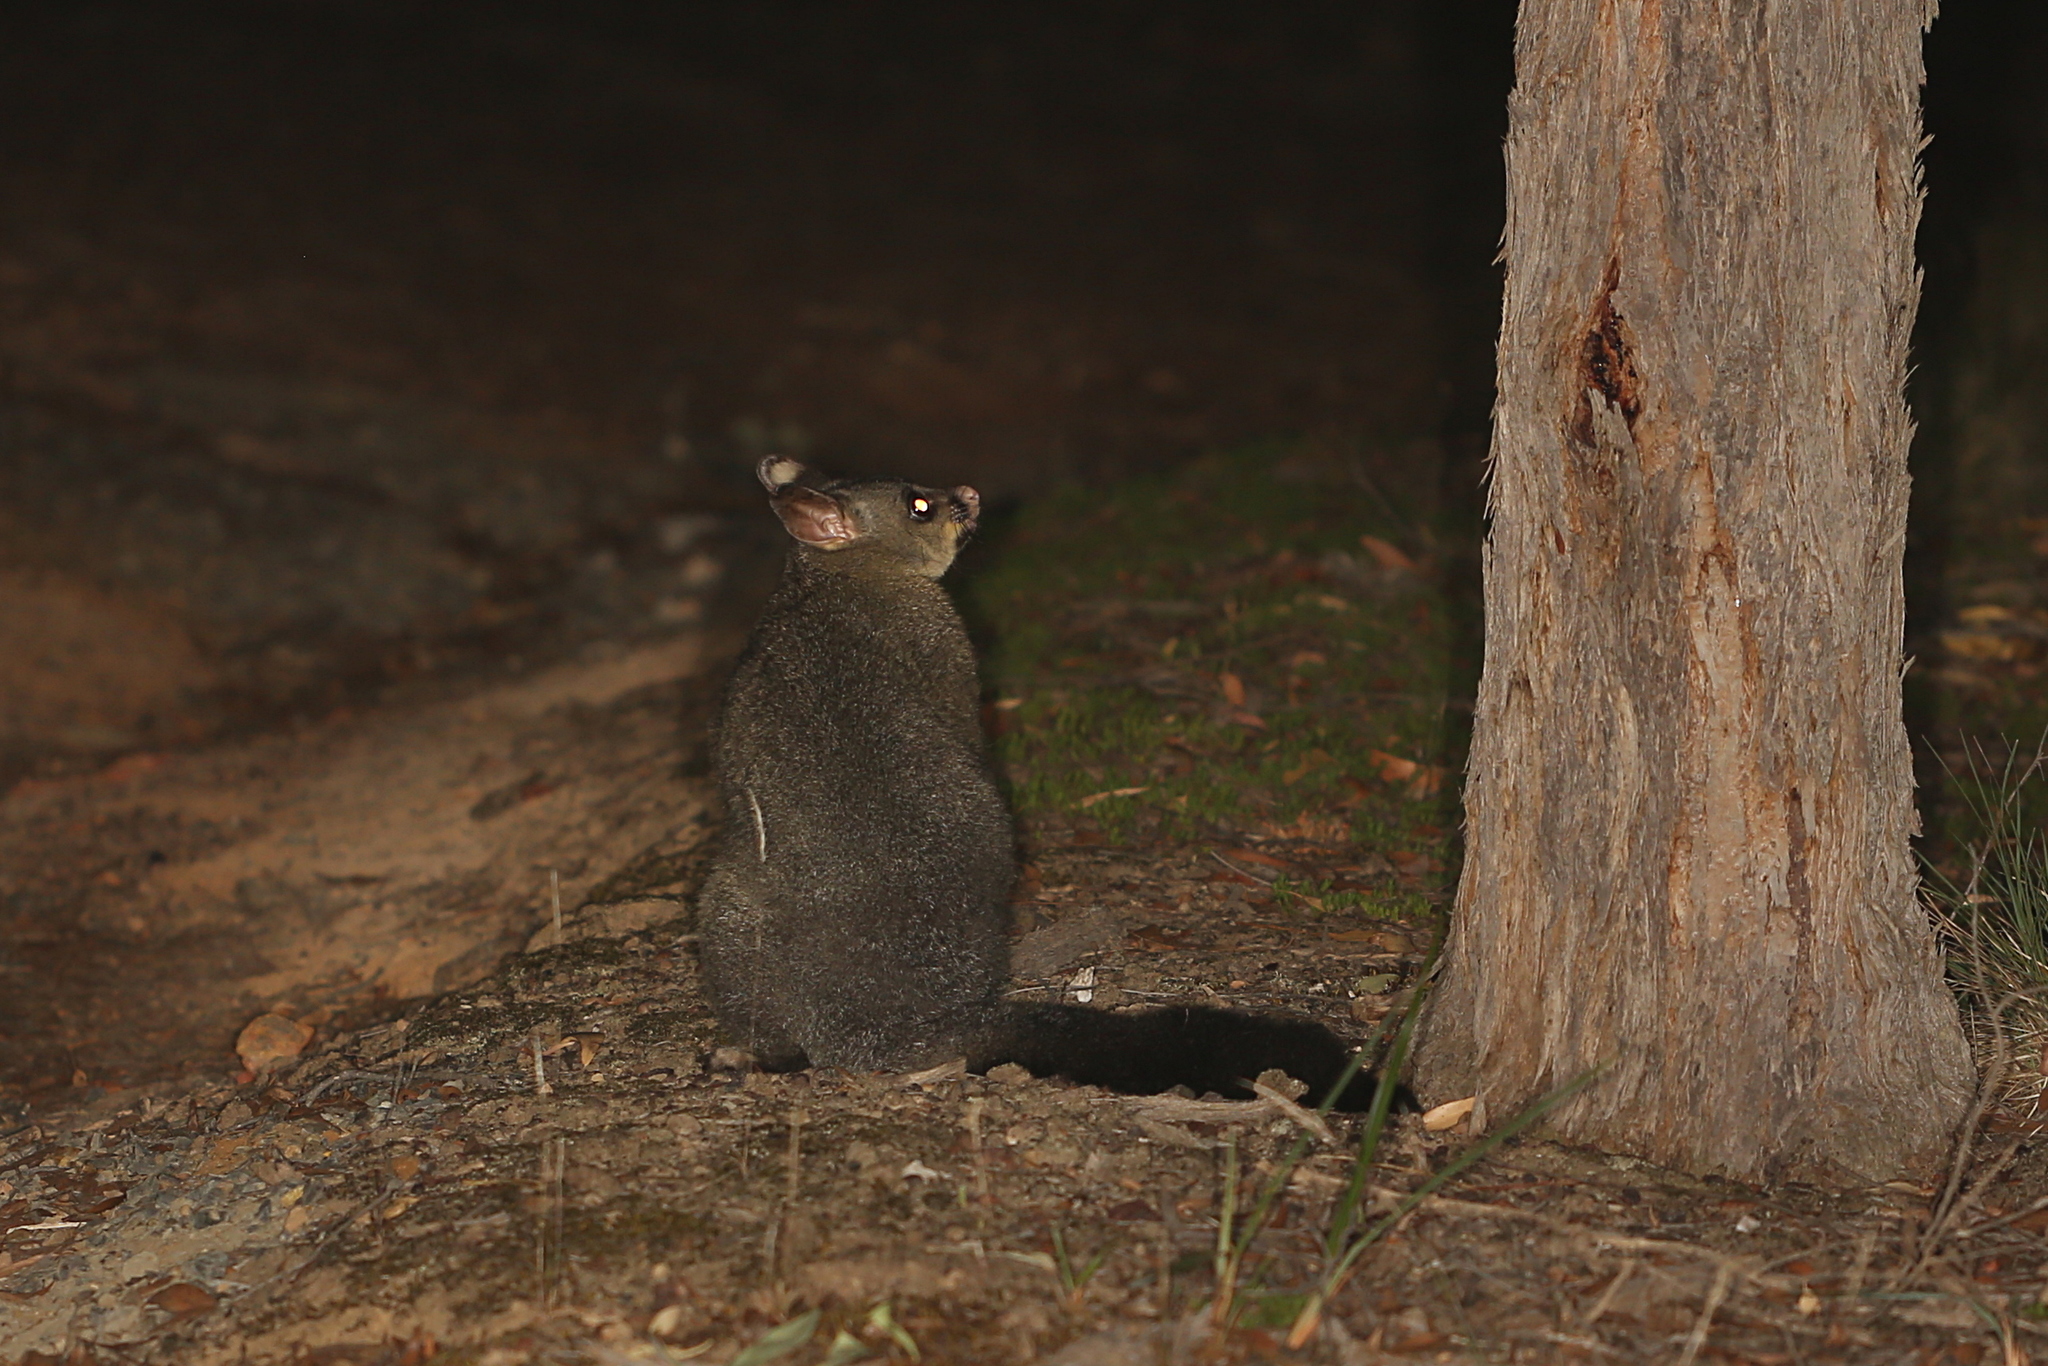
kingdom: Animalia
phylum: Chordata
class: Mammalia
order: Diprotodontia
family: Phalangeridae
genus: Trichosurus
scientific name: Trichosurus vulpecula
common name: Common brushtail
